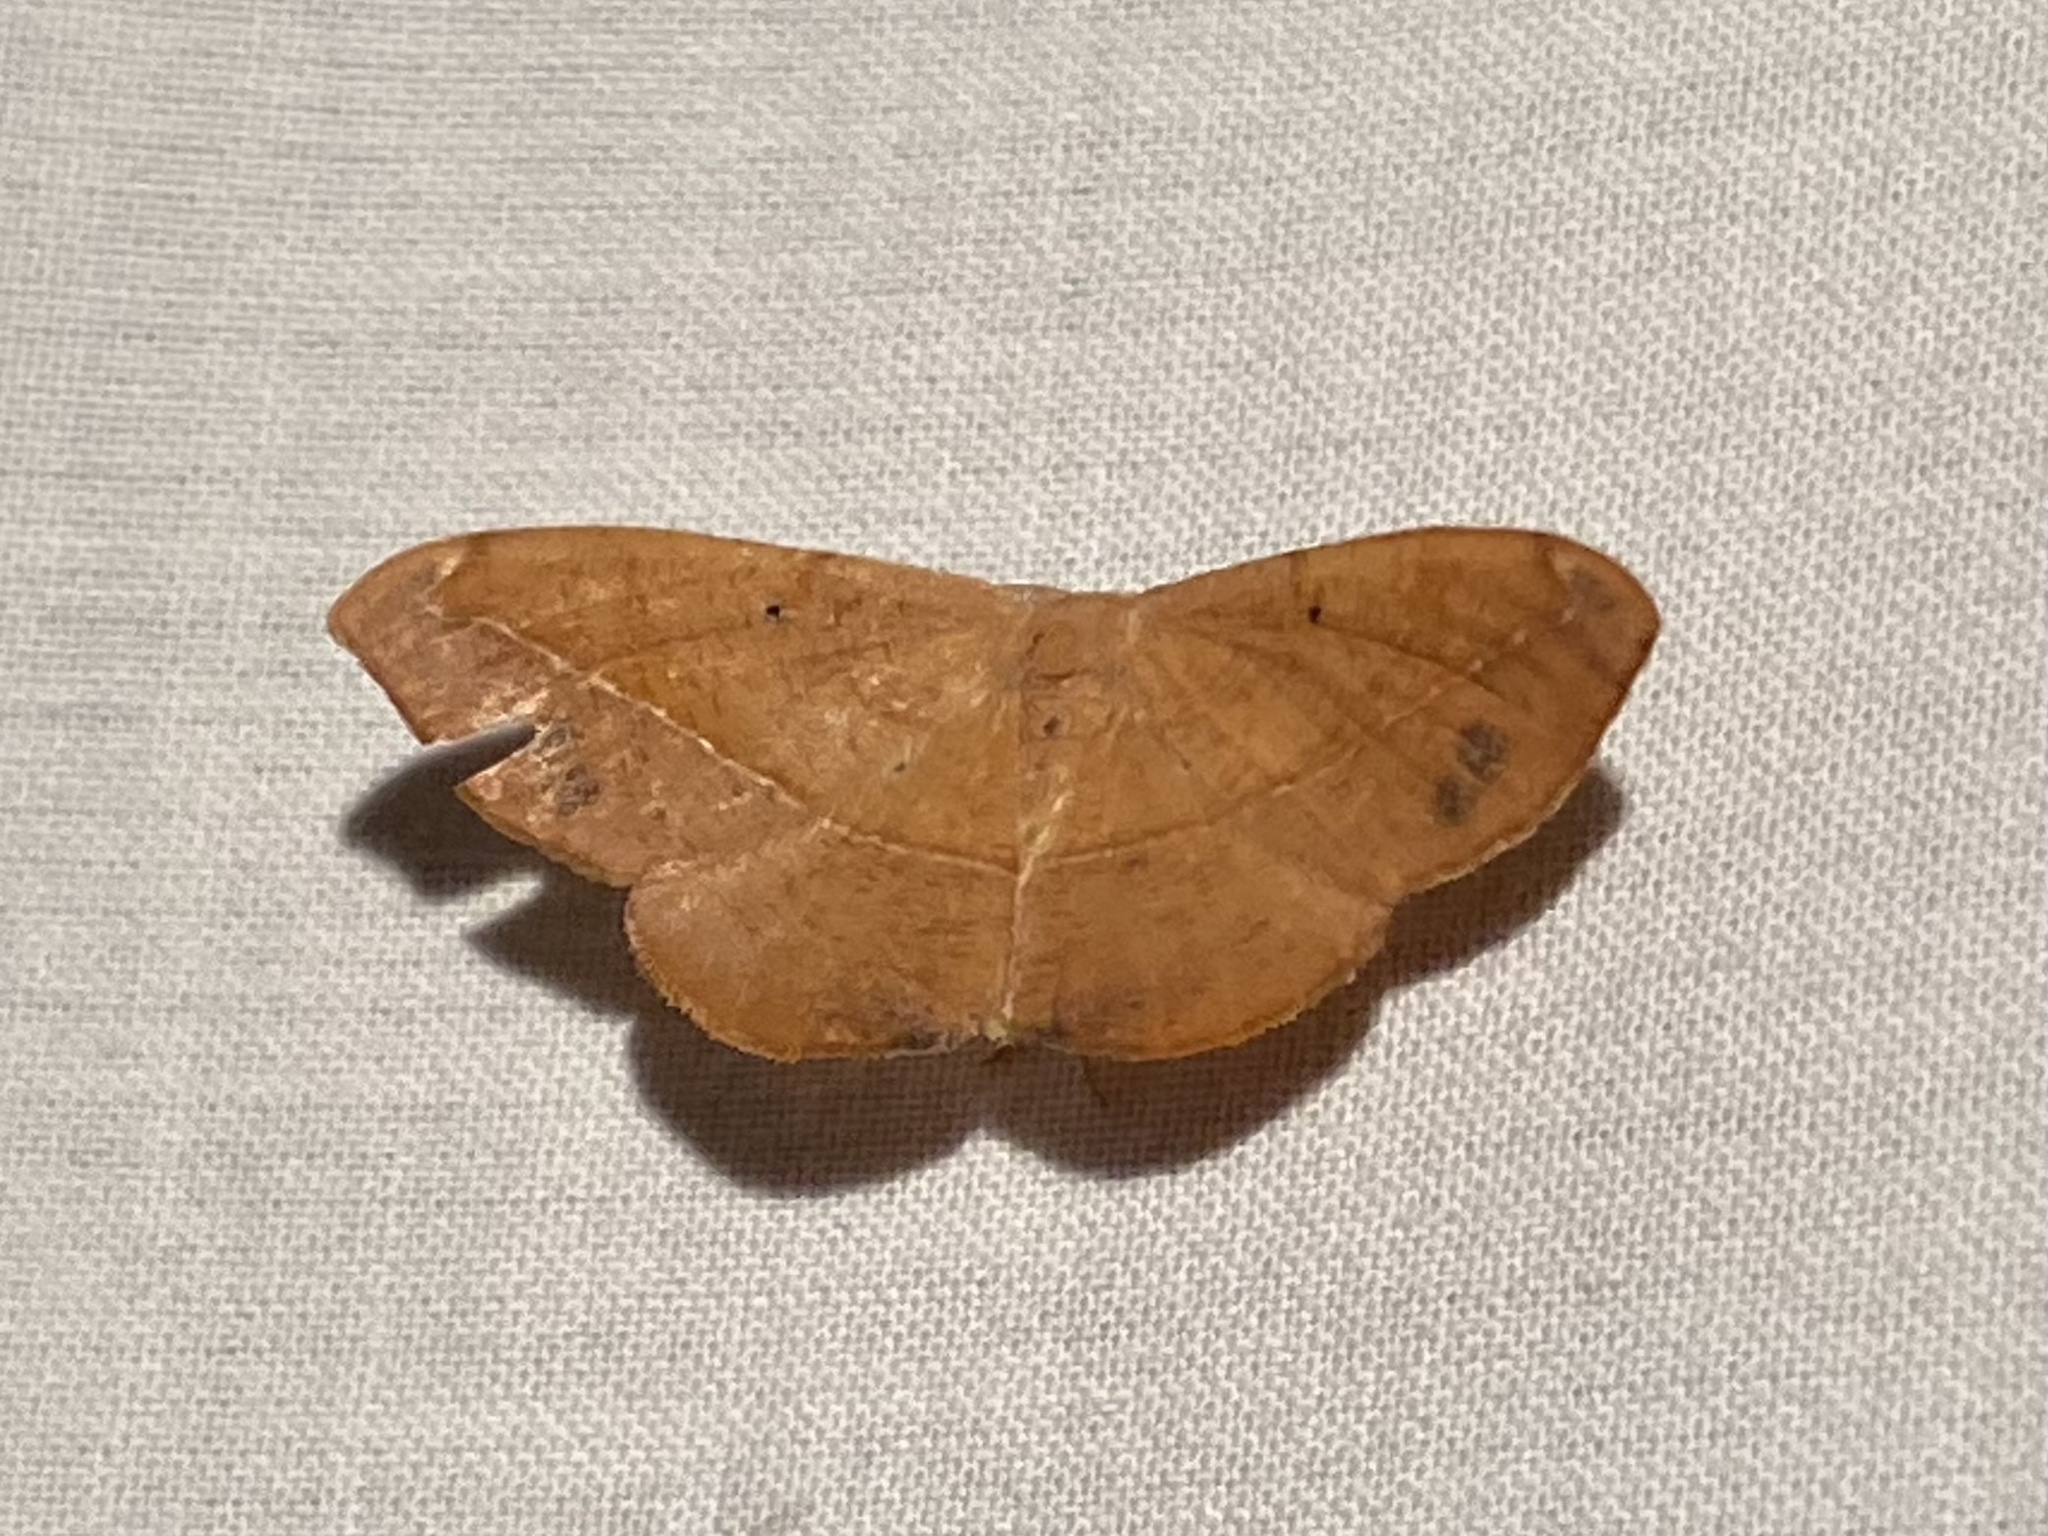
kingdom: Animalia
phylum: Arthropoda
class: Insecta
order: Lepidoptera
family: Geometridae
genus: Patalene
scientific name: Patalene olyzonaria
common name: Juniper geometer moth
